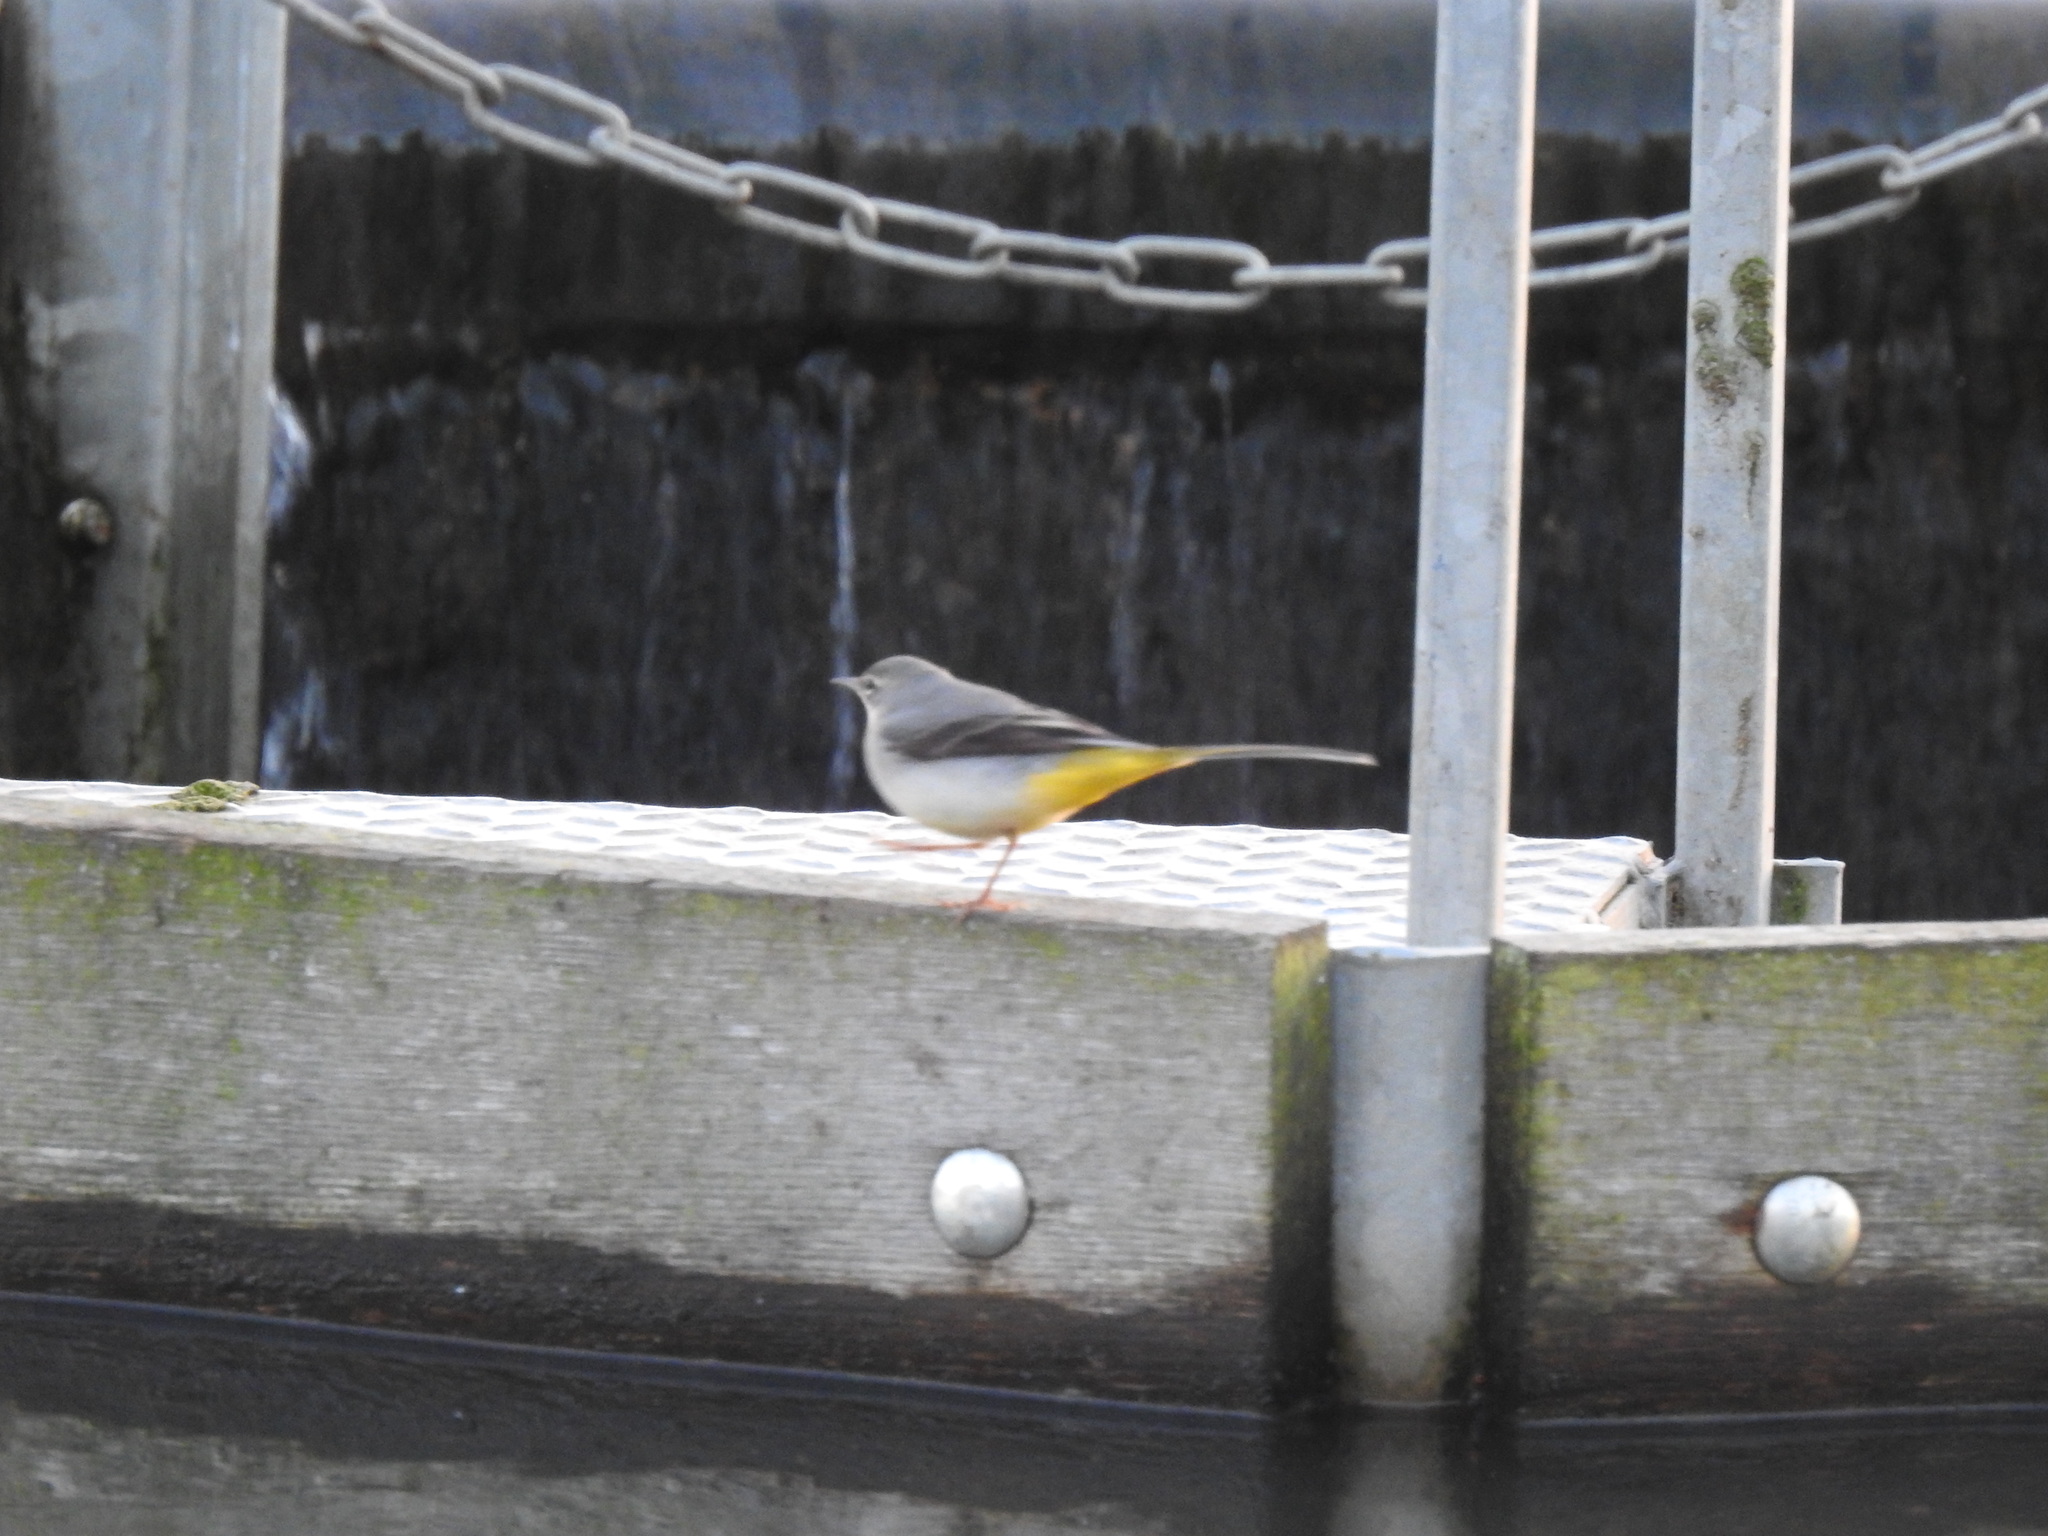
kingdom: Animalia
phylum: Chordata
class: Aves
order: Passeriformes
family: Motacillidae
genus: Motacilla
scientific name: Motacilla cinerea
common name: Grey wagtail
